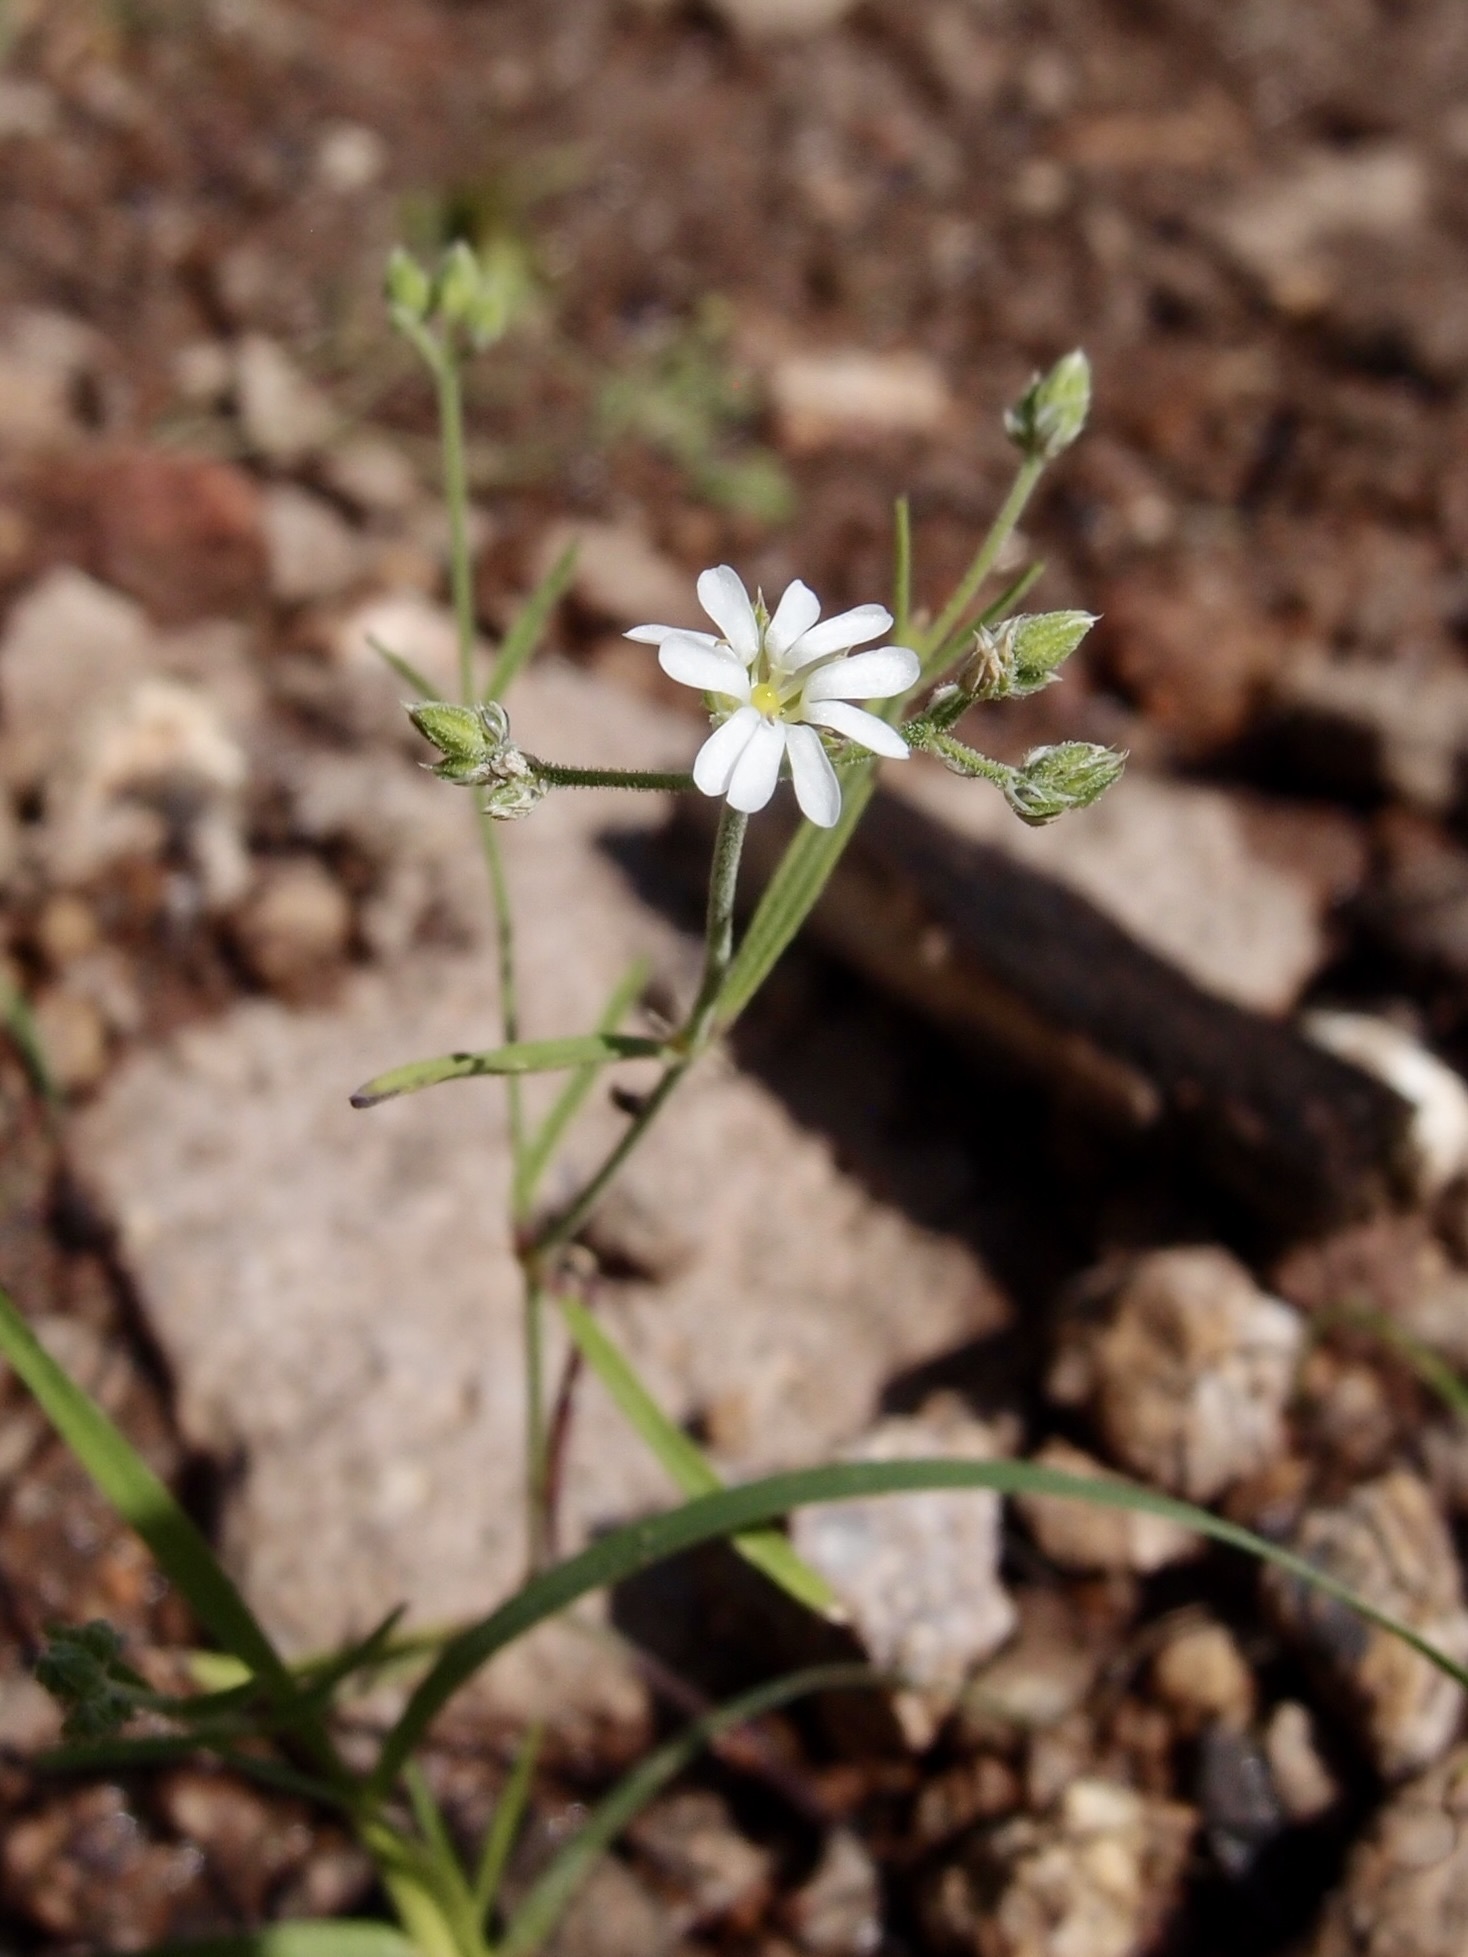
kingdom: Plantae
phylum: Tracheophyta
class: Magnoliopsida
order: Caryophyllales
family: Caryophyllaceae
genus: Drymaria
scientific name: Drymaria effusa
